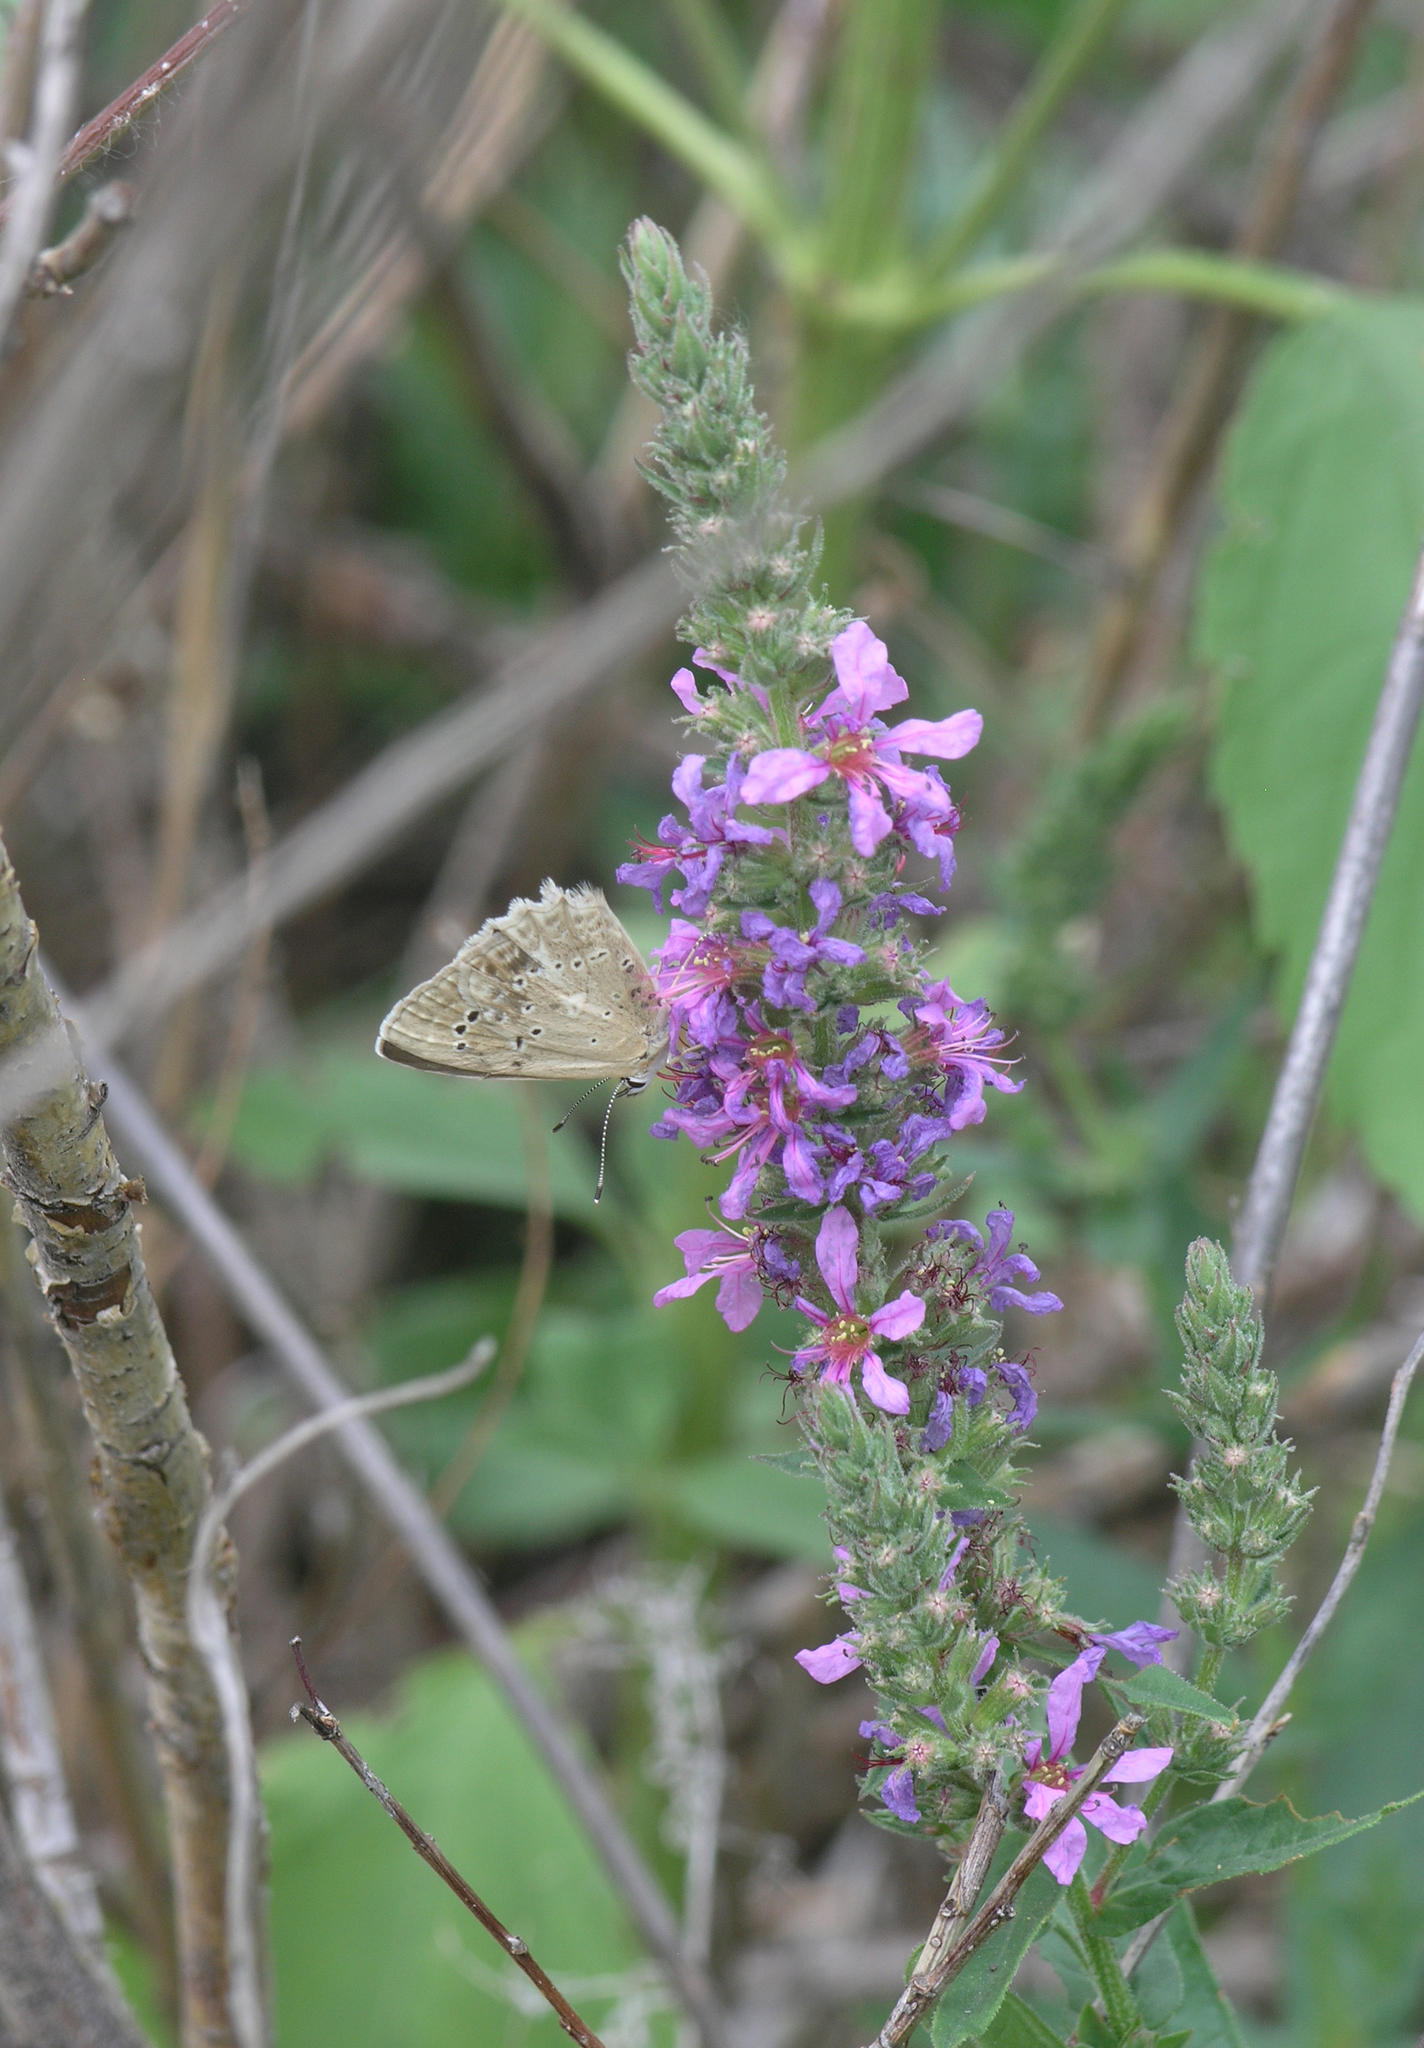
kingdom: Animalia
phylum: Arthropoda
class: Insecta
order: Lepidoptera
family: Lycaenidae
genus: Polyommatus
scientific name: Polyommatus daphnis
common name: Meleager's blue
